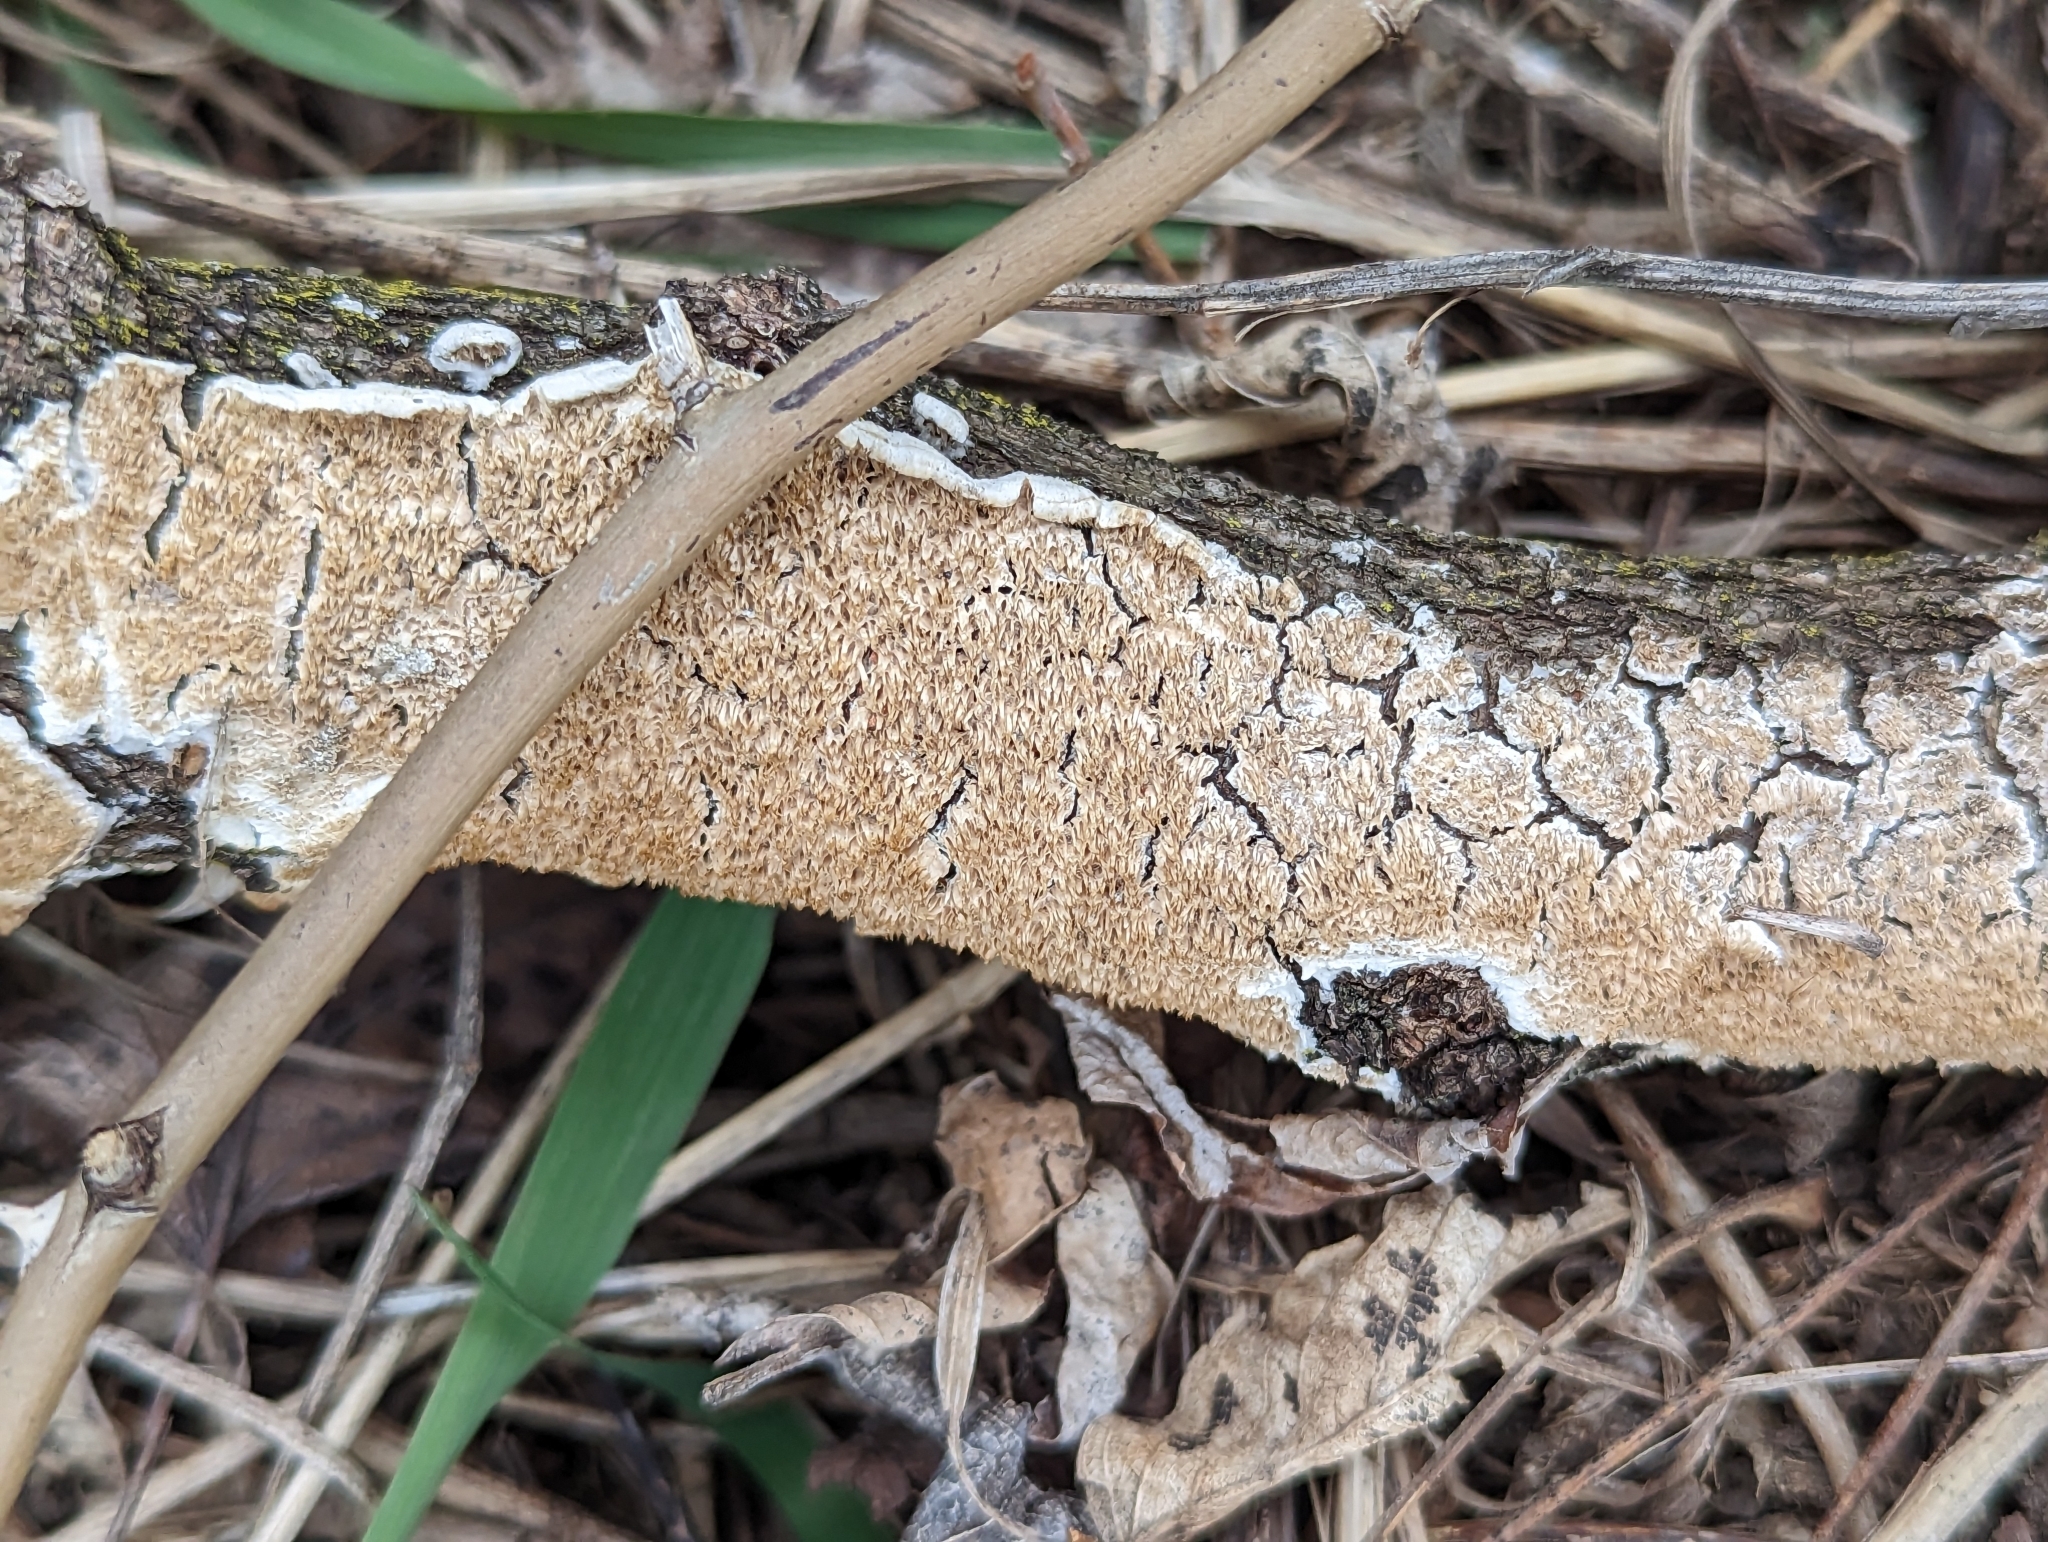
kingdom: Fungi
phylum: Basidiomycota
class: Agaricomycetes
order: Polyporales
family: Irpicaceae
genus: Irpex
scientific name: Irpex lacteus
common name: Milk-white toothed polypore
